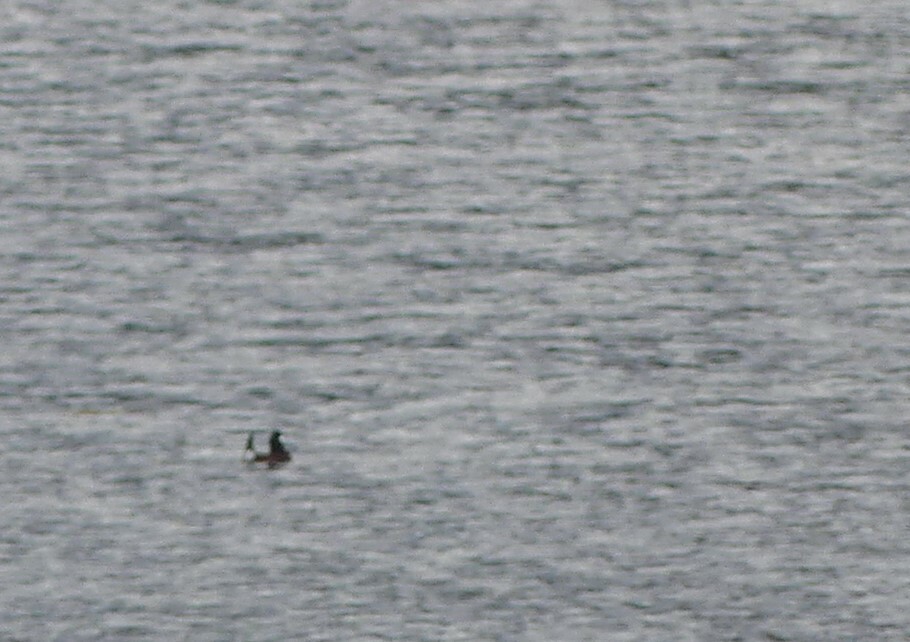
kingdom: Animalia
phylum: Chordata
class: Aves
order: Anseriformes
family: Anatidae
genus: Oxyura
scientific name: Oxyura jamaicensis
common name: Ruddy duck
